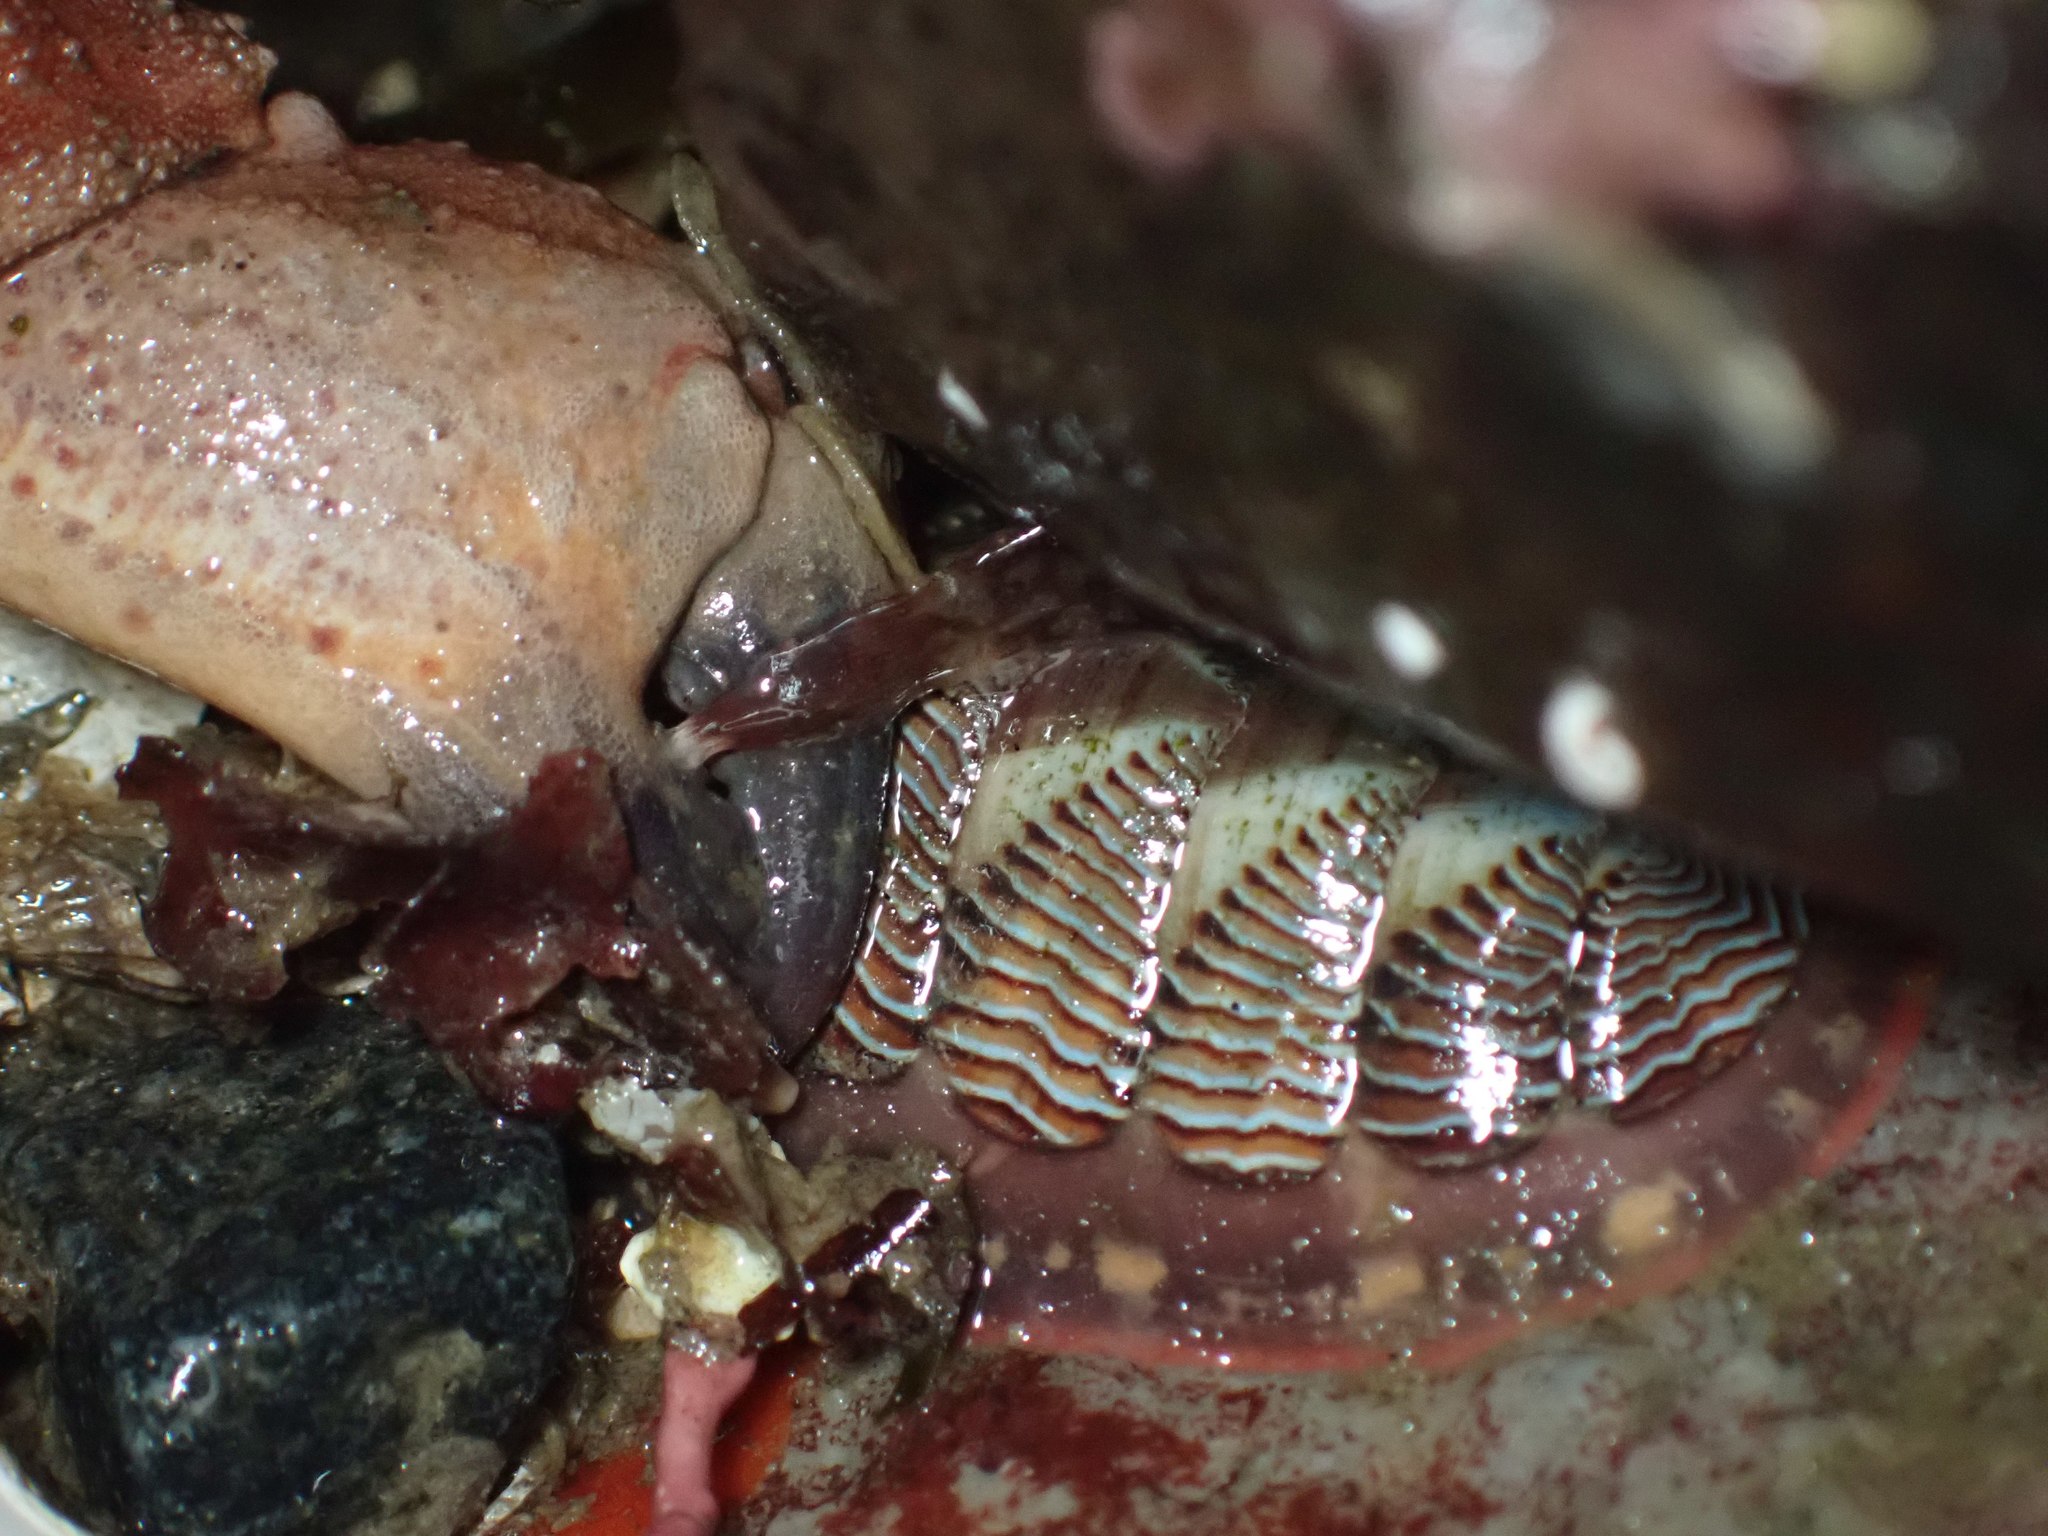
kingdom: Animalia
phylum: Mollusca
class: Polyplacophora
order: Chitonida
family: Tonicellidae
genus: Tonicella
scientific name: Tonicella lineata
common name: Lined chiton
